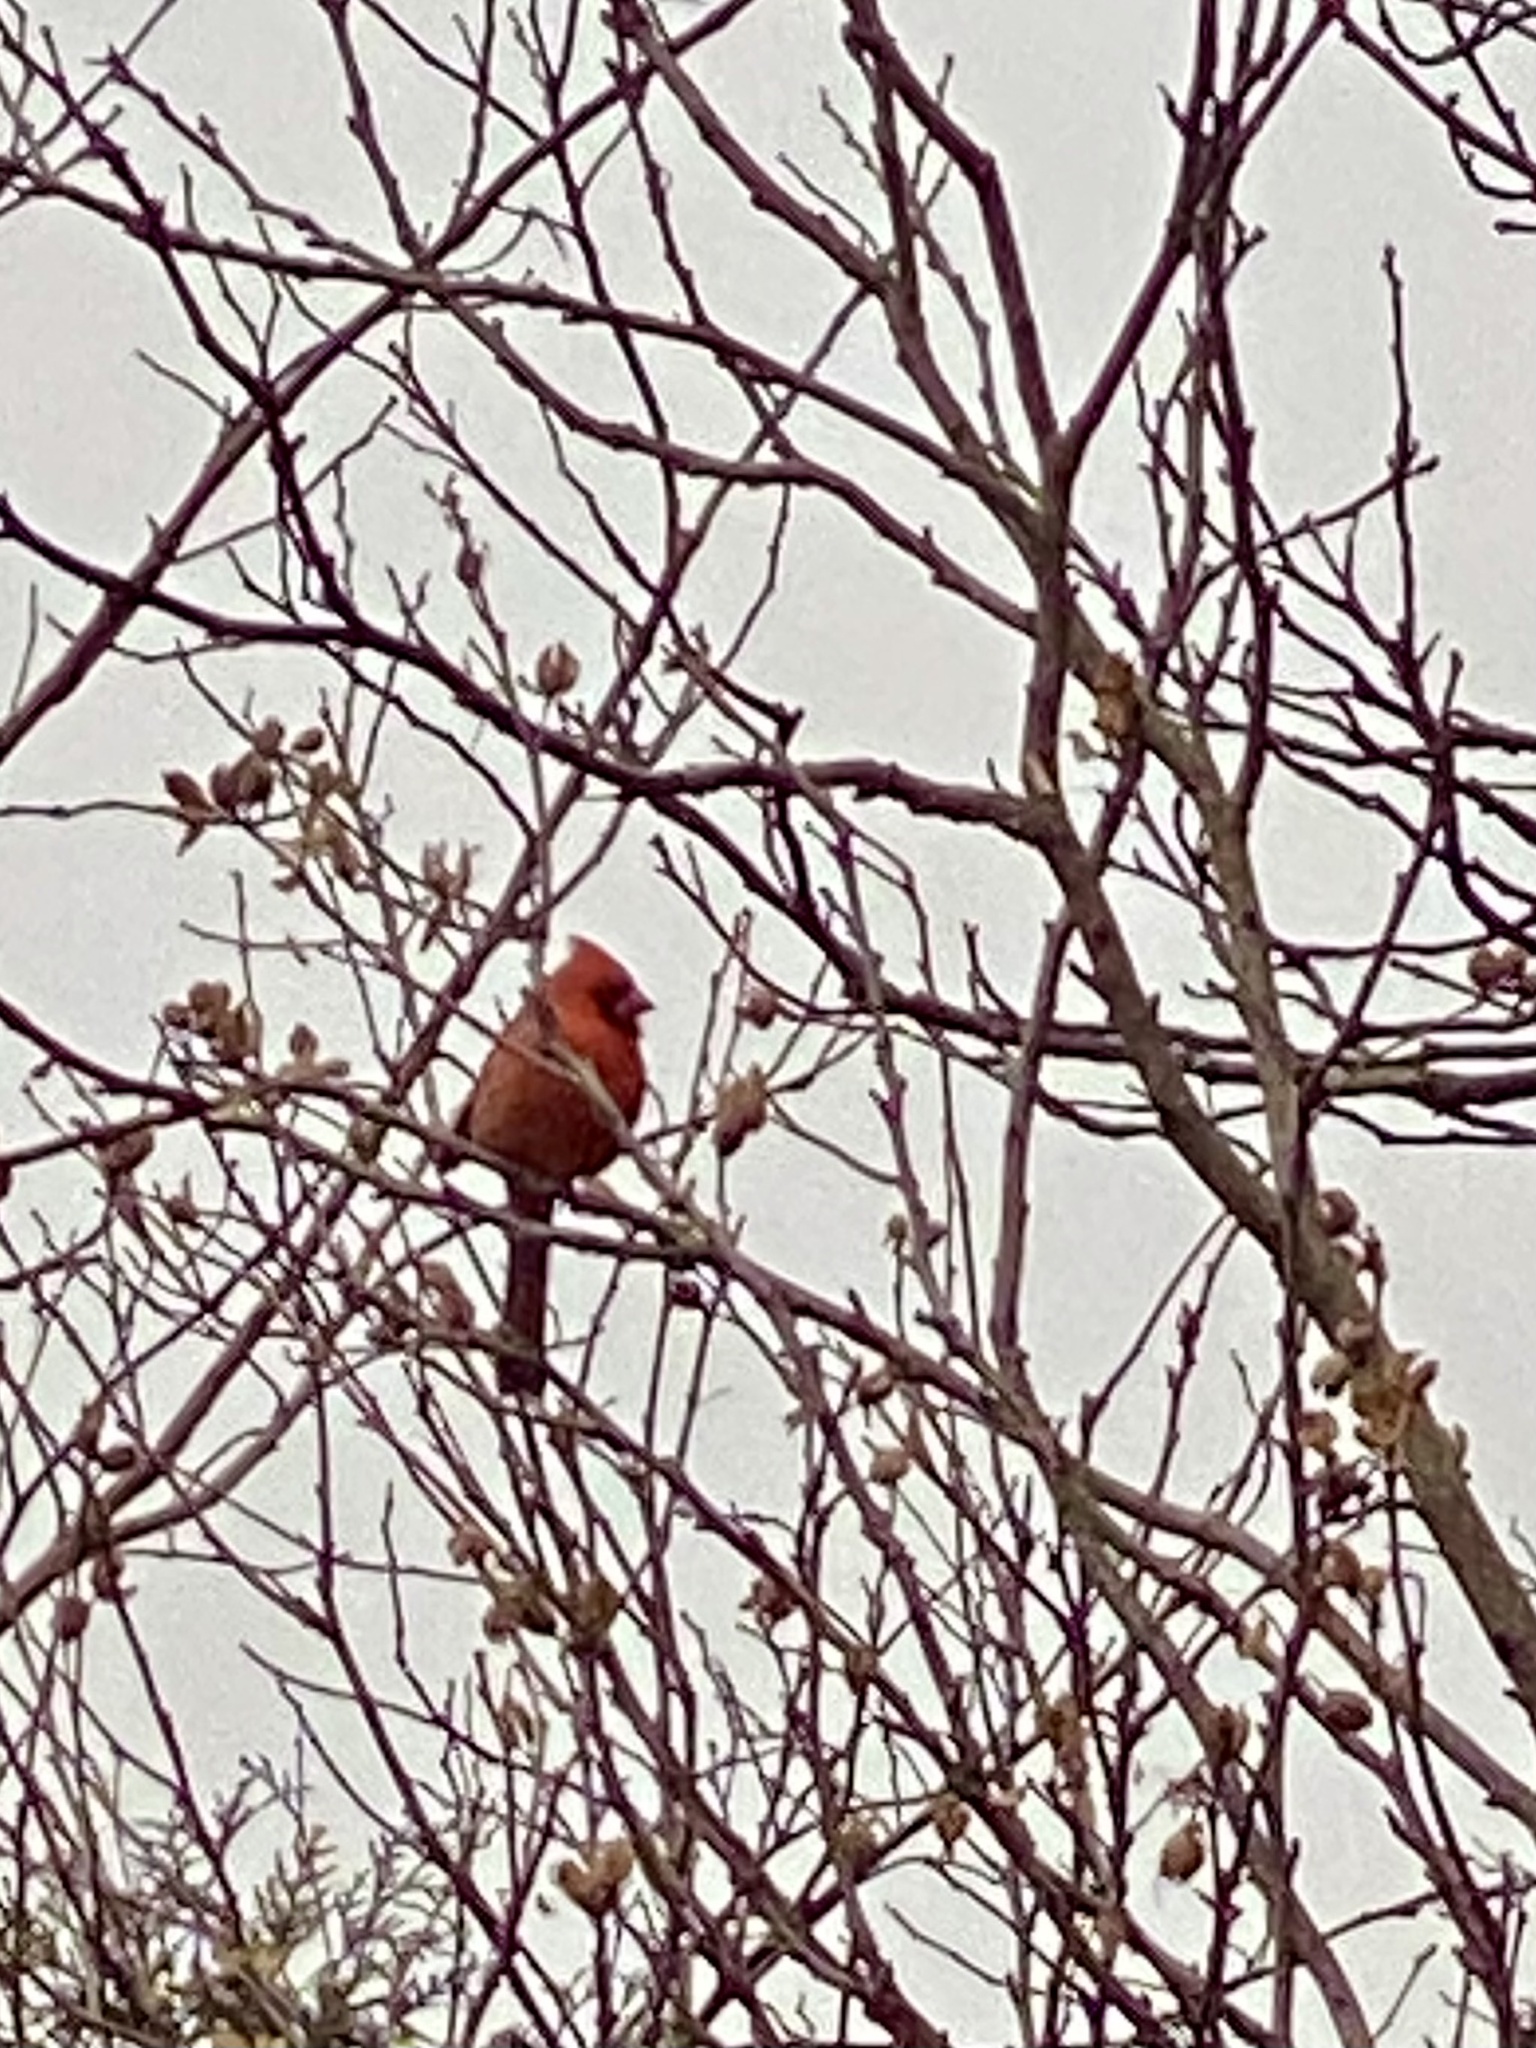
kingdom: Animalia
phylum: Chordata
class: Aves
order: Passeriformes
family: Cardinalidae
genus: Cardinalis
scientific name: Cardinalis cardinalis
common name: Northern cardinal
